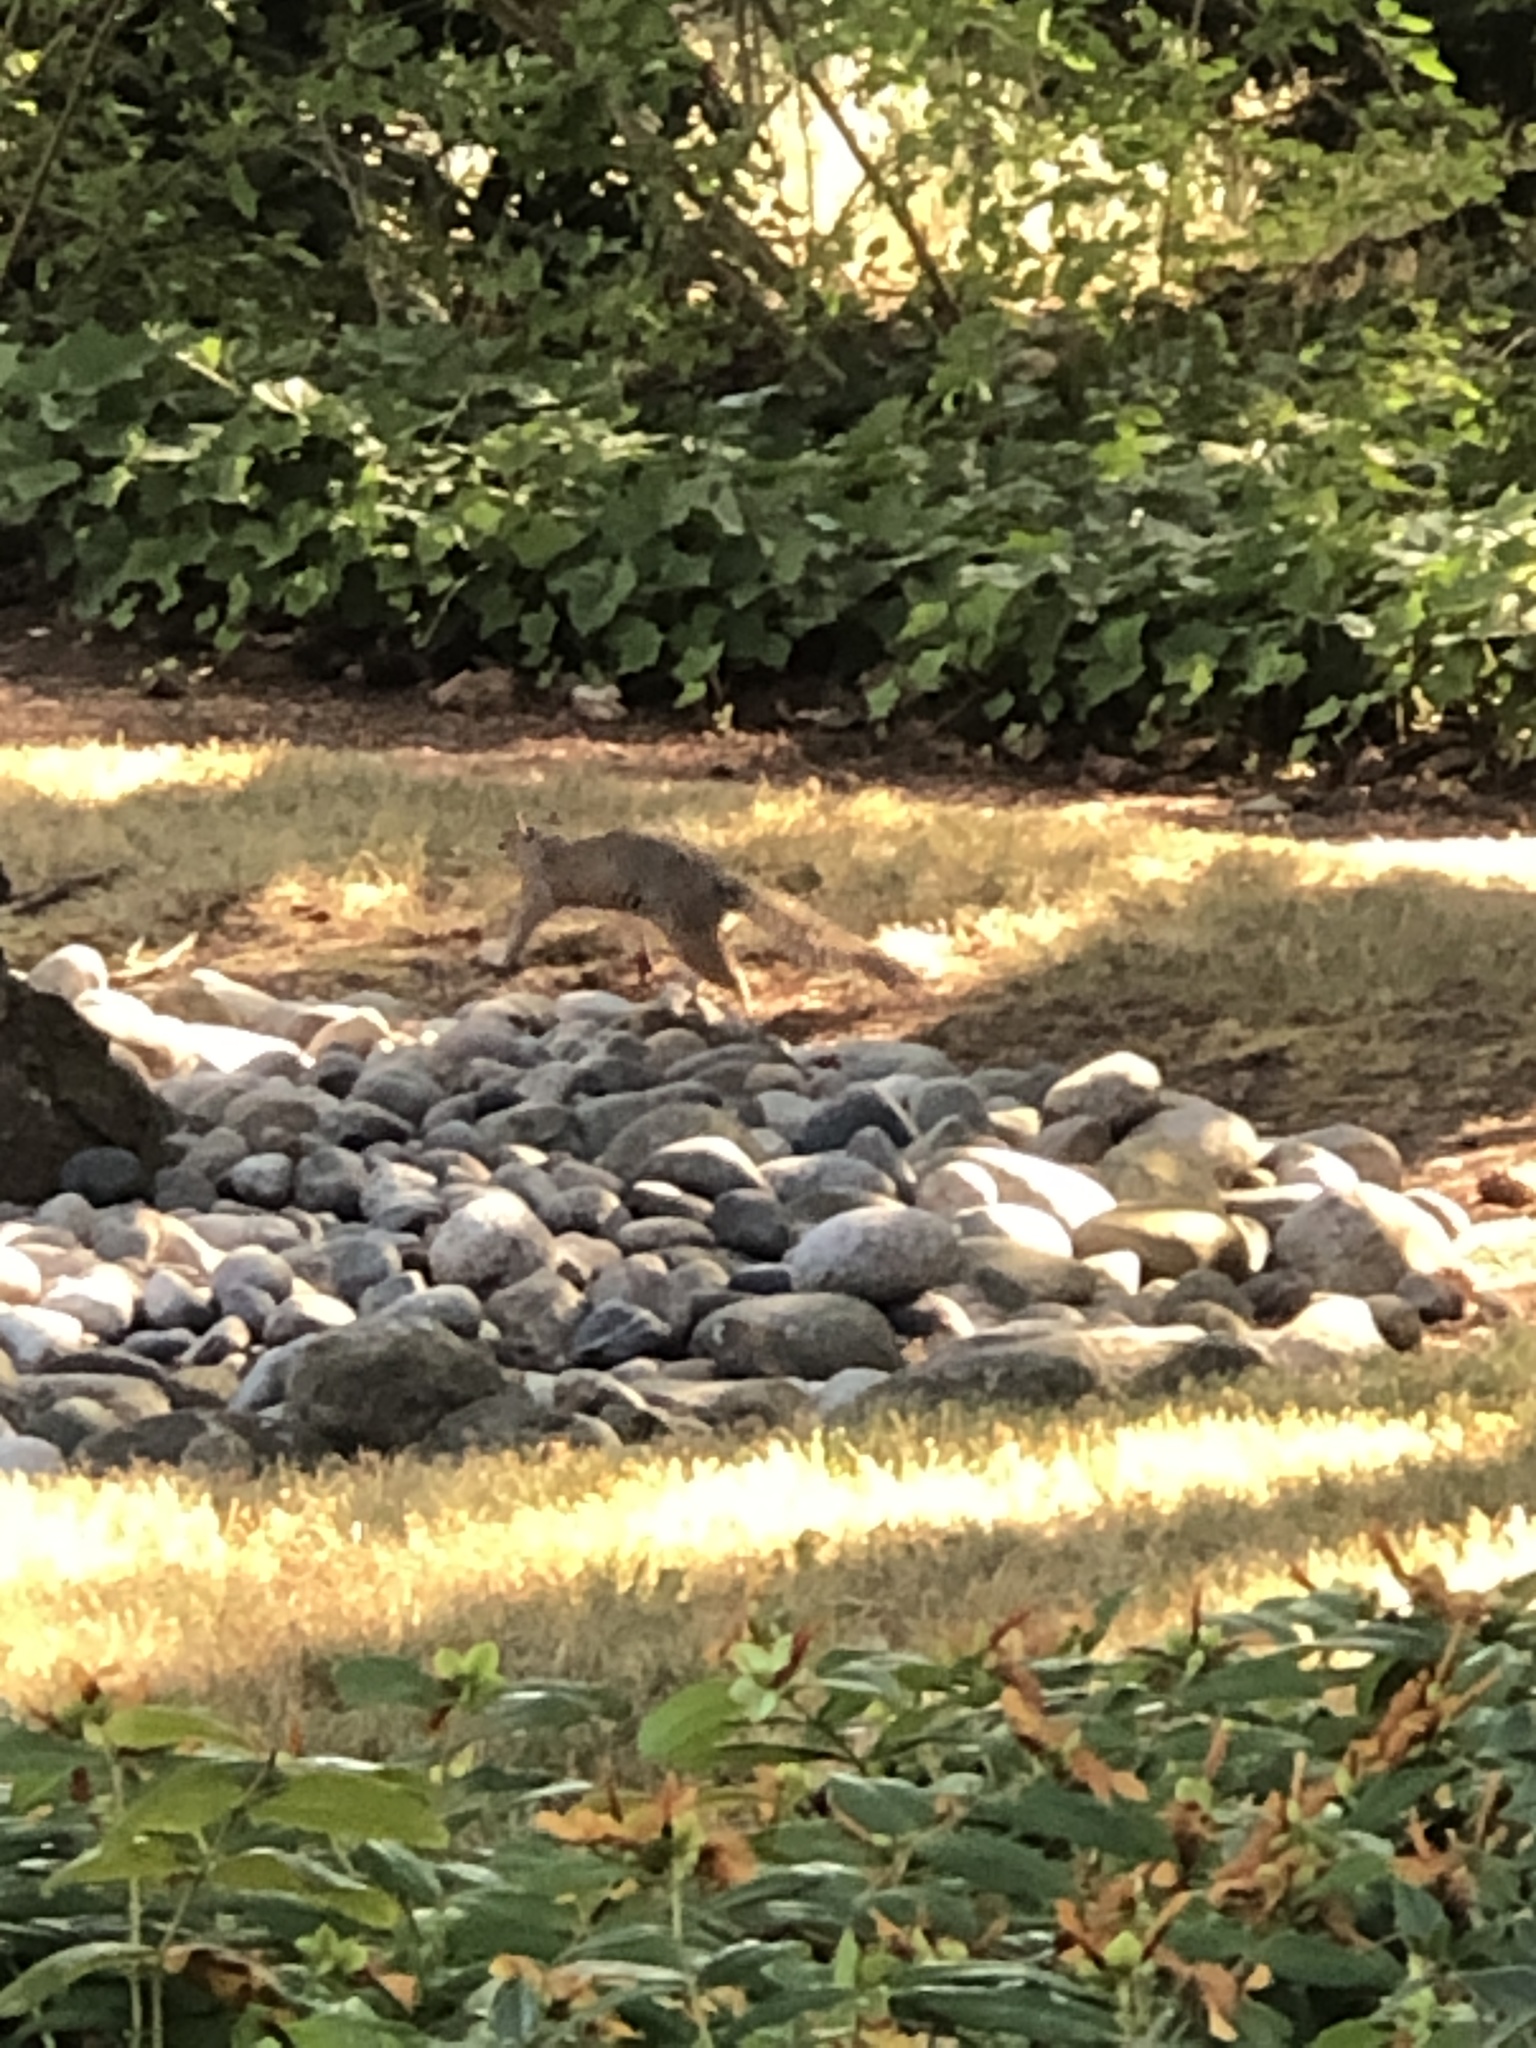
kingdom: Animalia
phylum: Chordata
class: Mammalia
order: Rodentia
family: Sciuridae
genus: Sciurus
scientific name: Sciurus carolinensis
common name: Eastern gray squirrel
